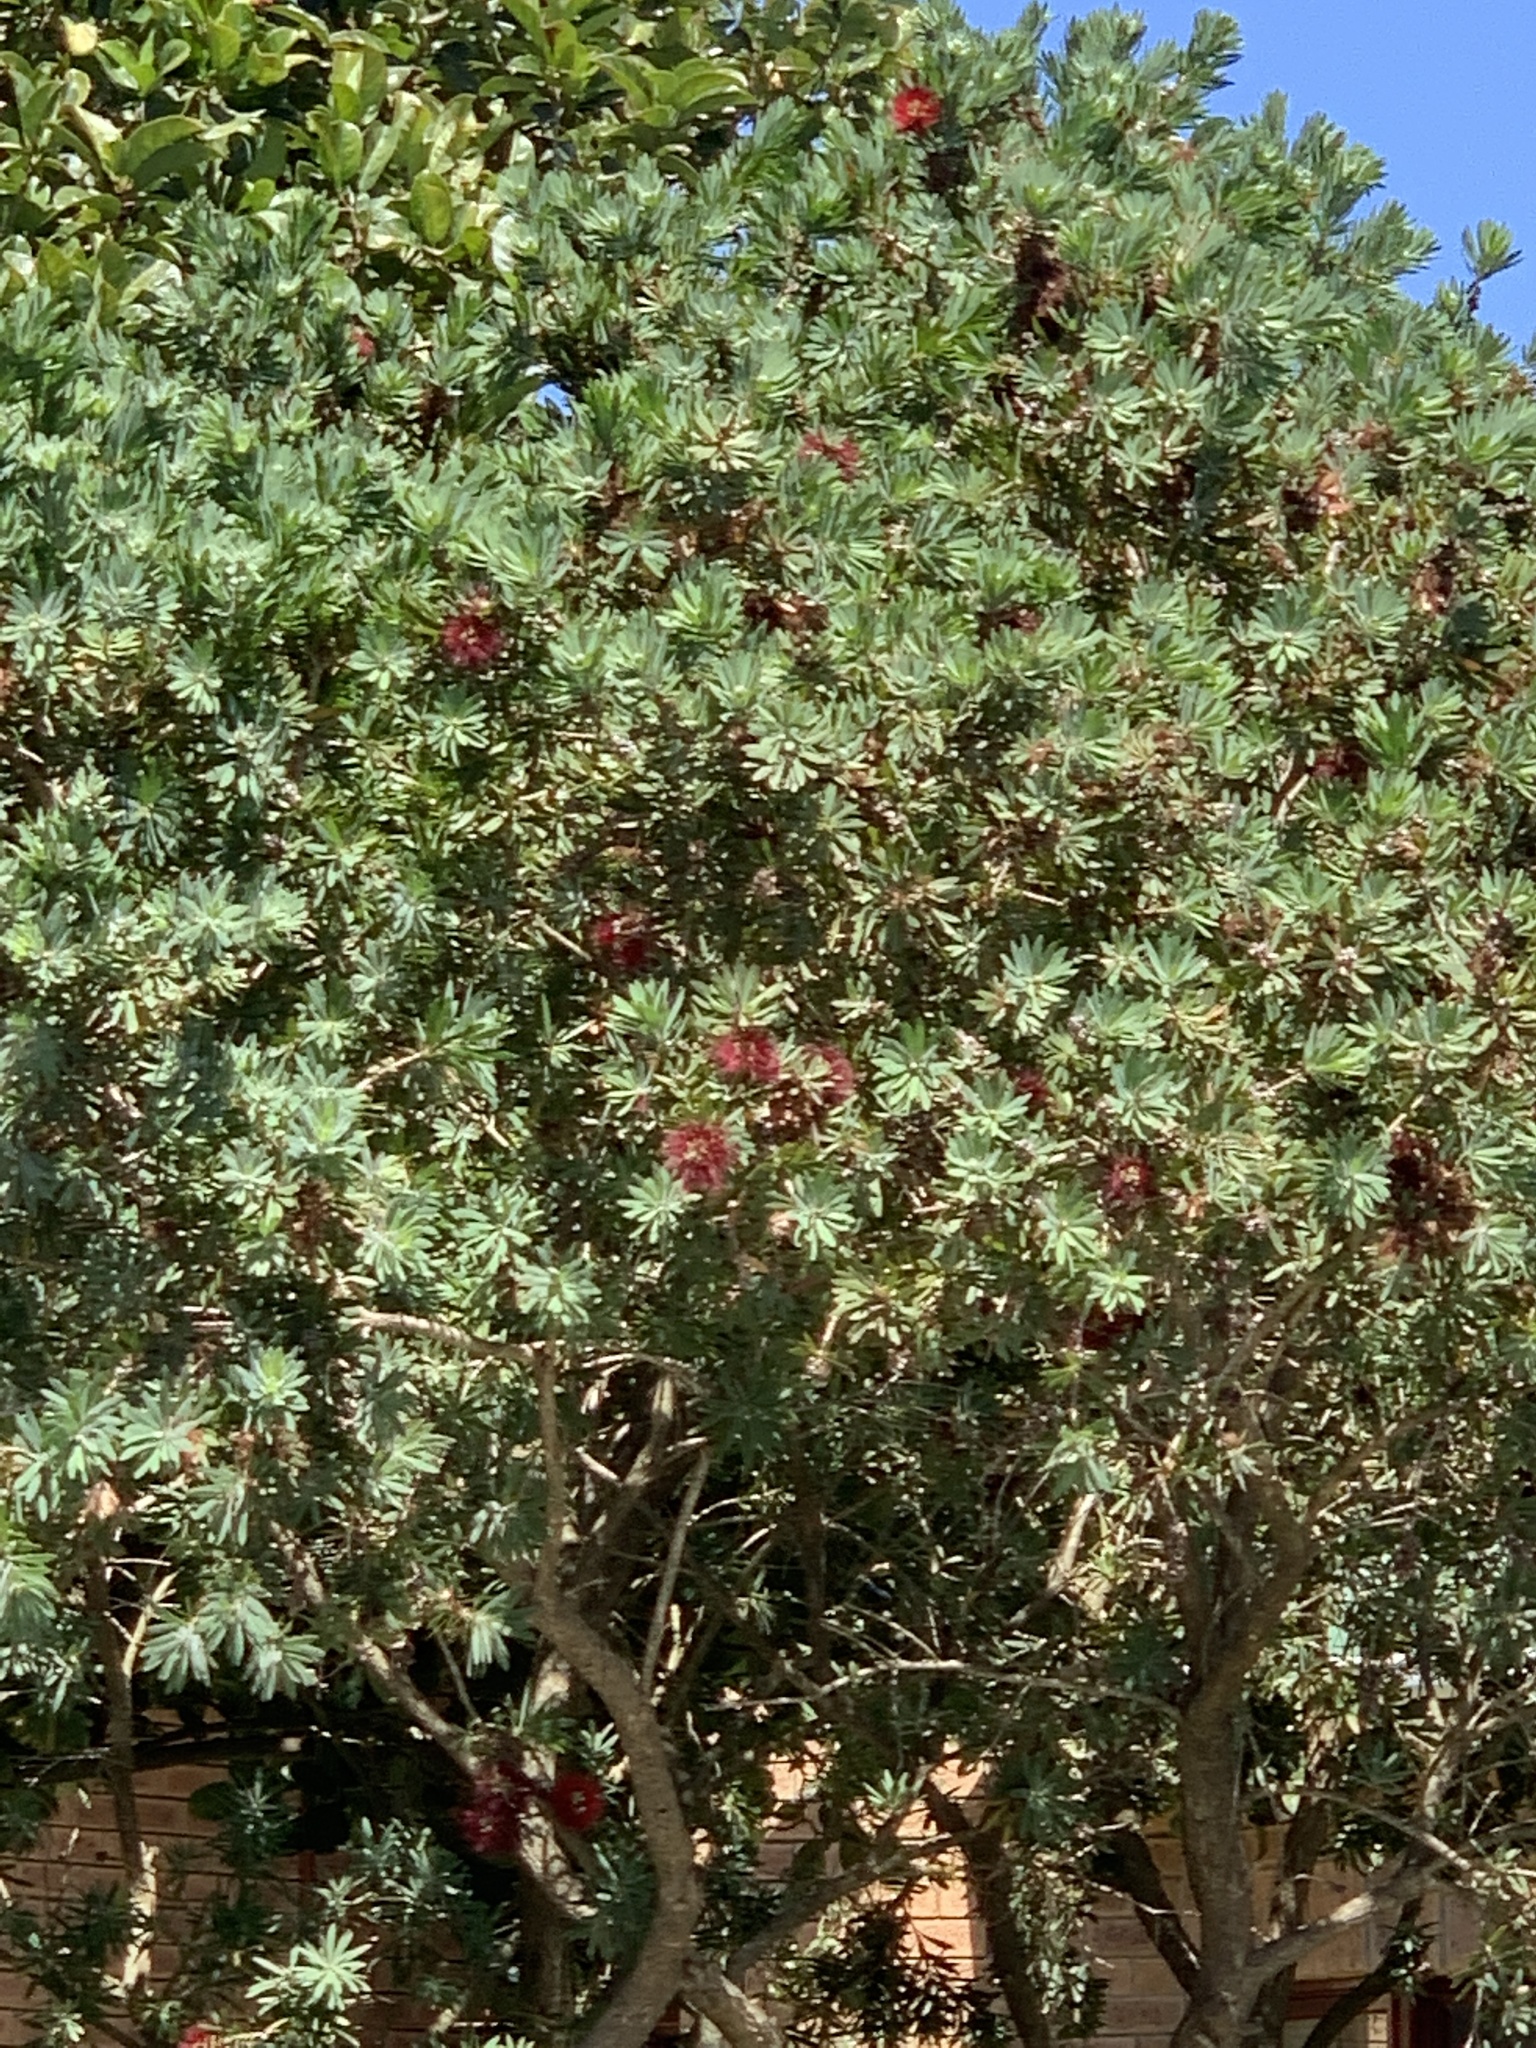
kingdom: Plantae
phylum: Tracheophyta
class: Magnoliopsida
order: Myrtales
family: Myrtaceae
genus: Callistemon
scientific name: Callistemon viminalis
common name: Drooping bottlebrush
